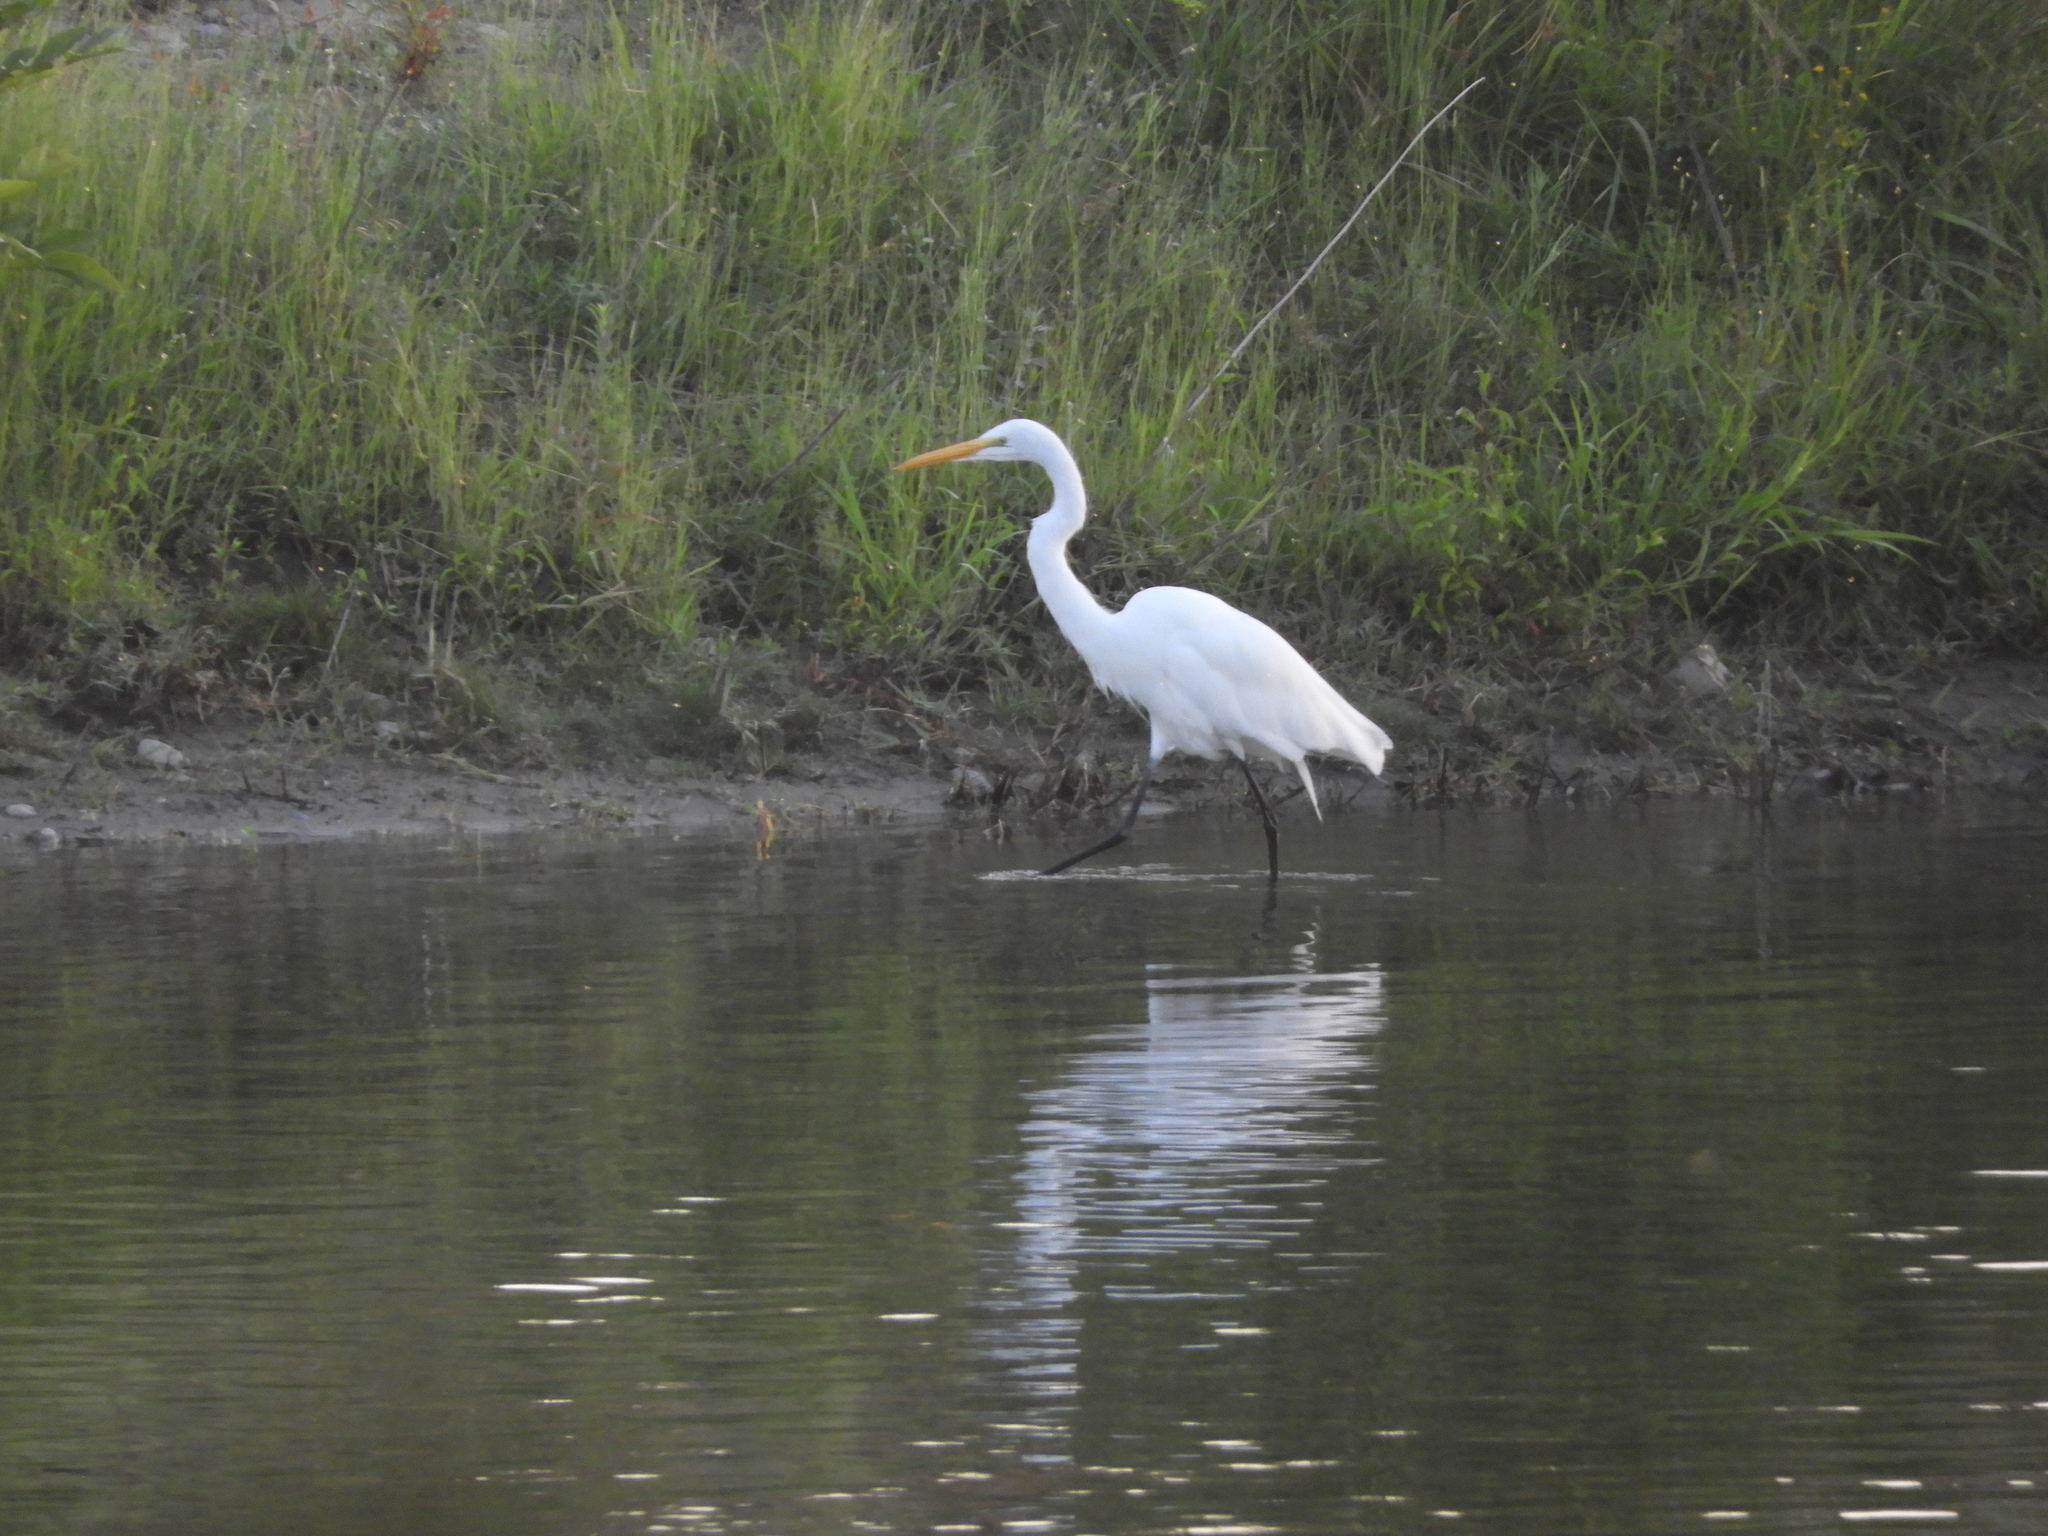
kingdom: Animalia
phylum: Chordata
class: Aves
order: Pelecaniformes
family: Ardeidae
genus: Ardea
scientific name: Ardea alba
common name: Great egret
